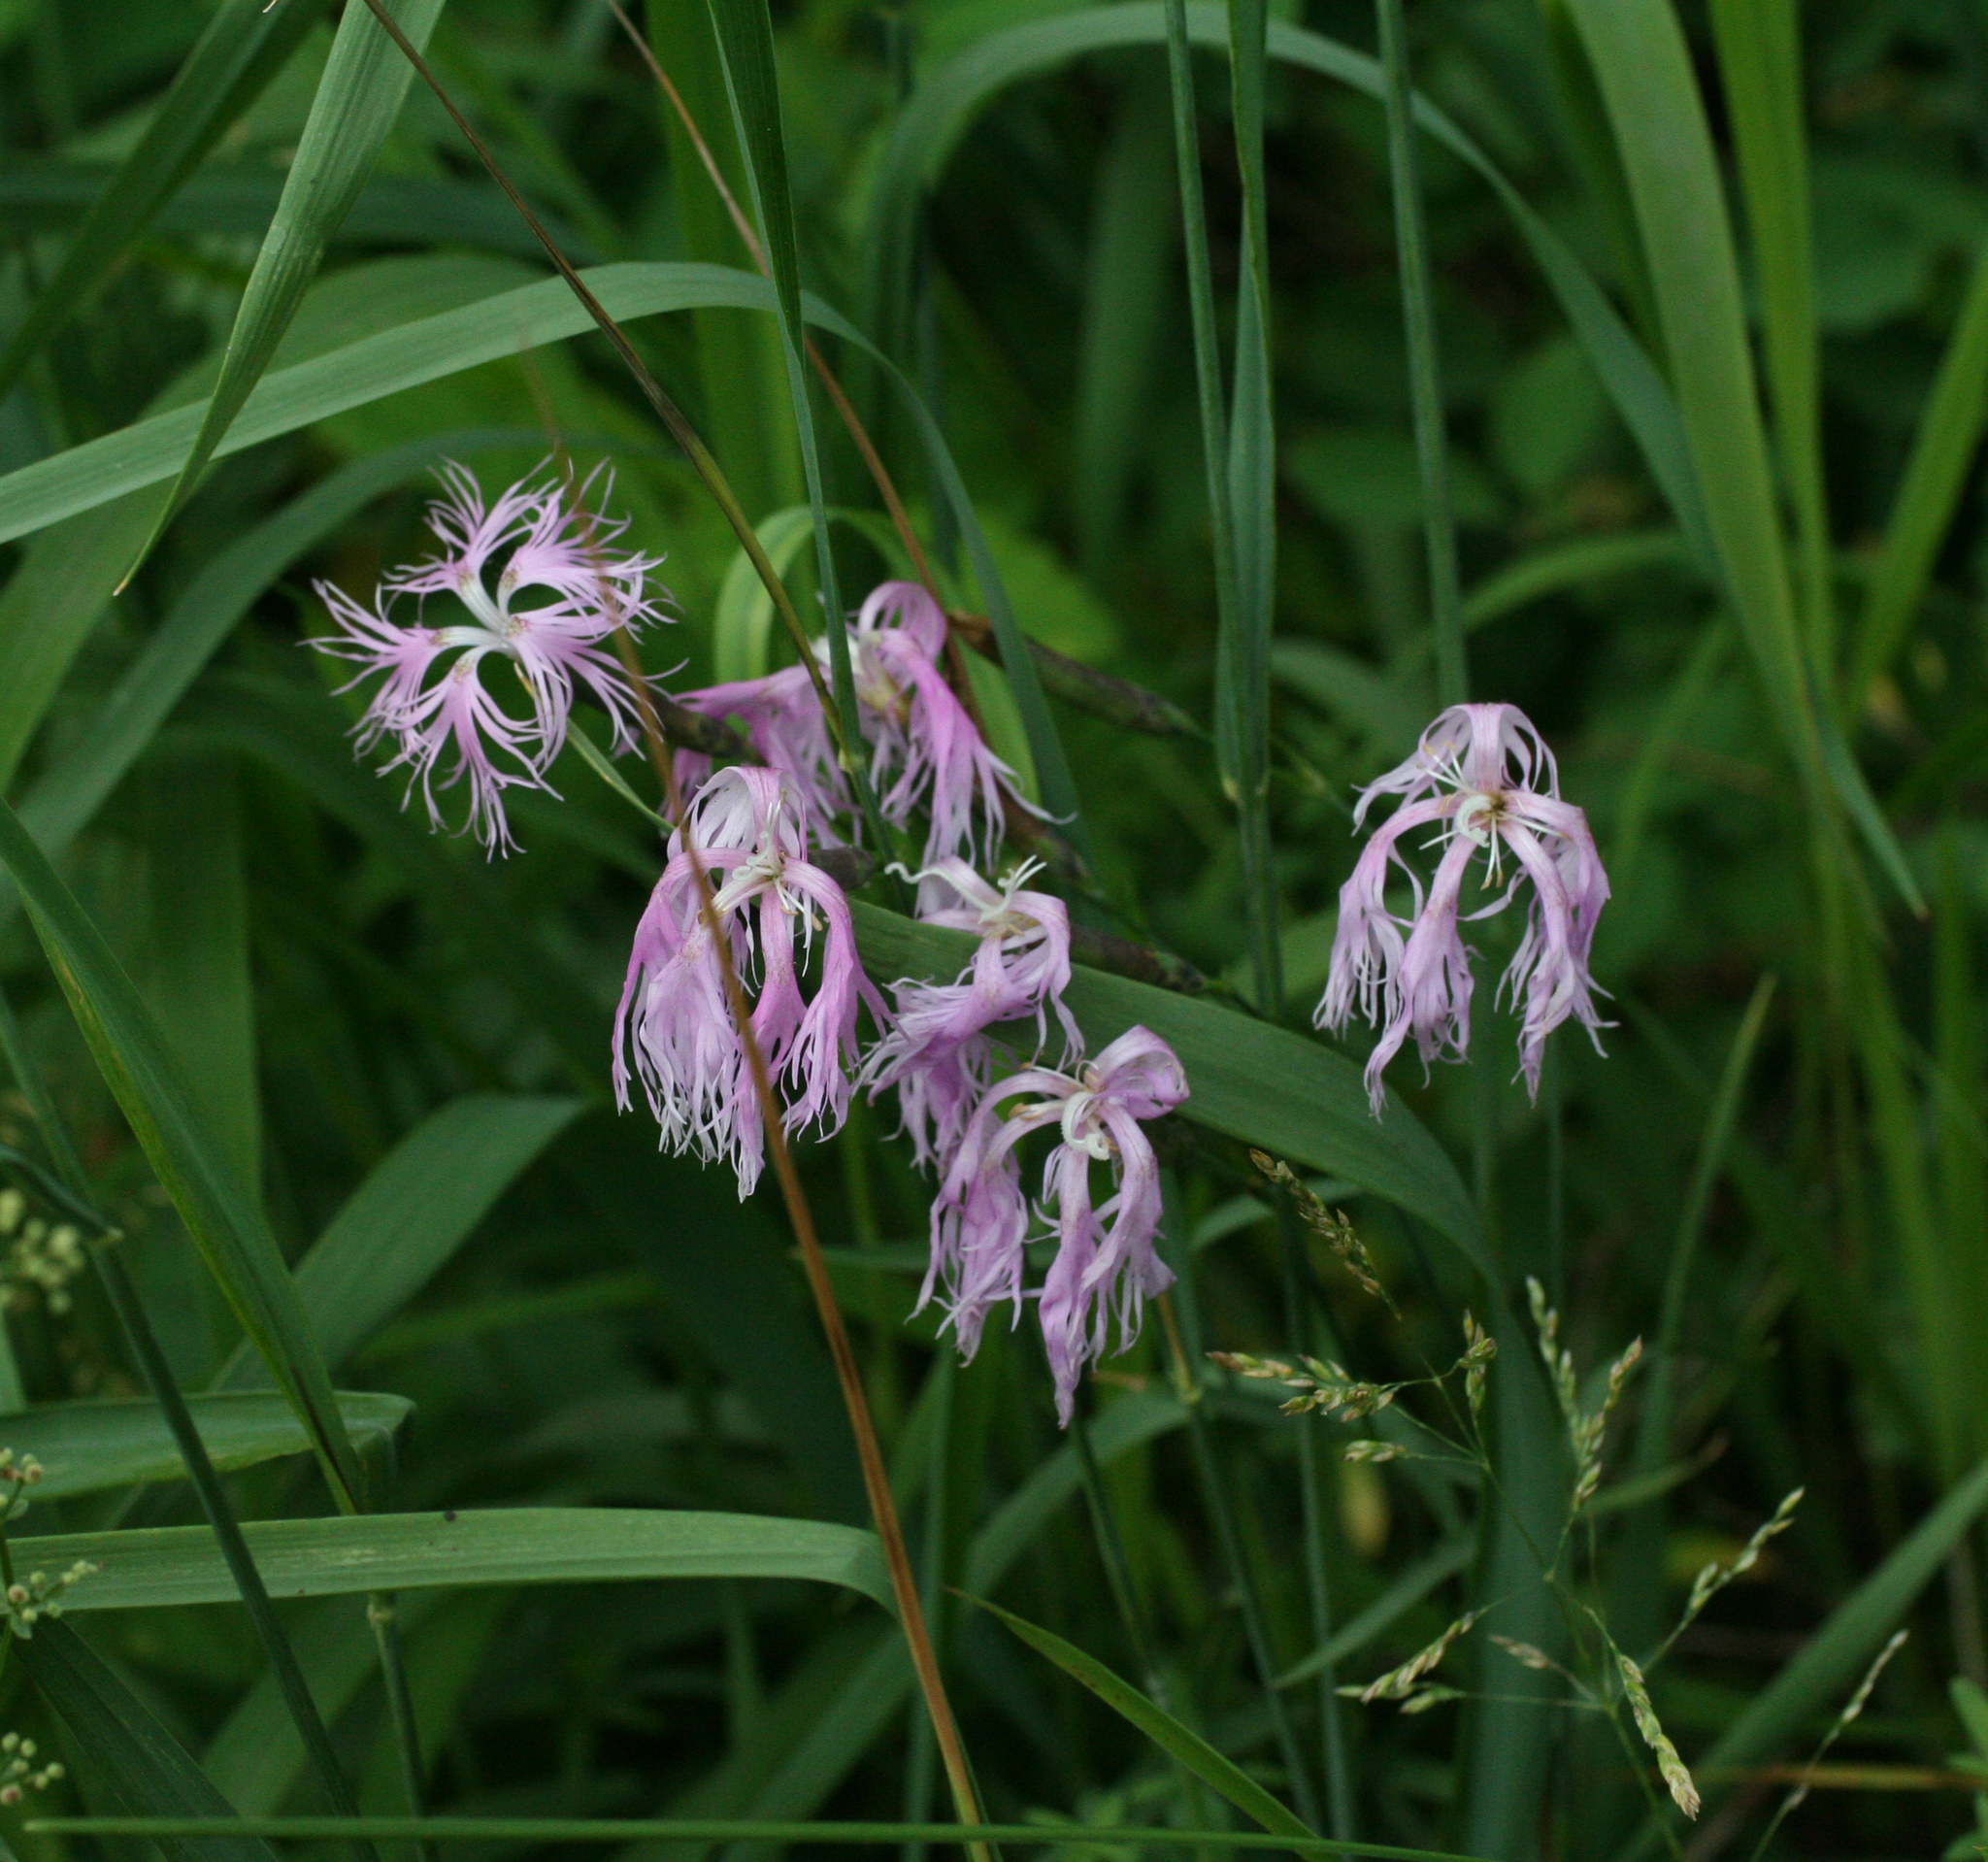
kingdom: Plantae
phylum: Tracheophyta
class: Magnoliopsida
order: Caryophyllales
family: Caryophyllaceae
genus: Dianthus
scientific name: Dianthus superbus
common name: Fringed pink
